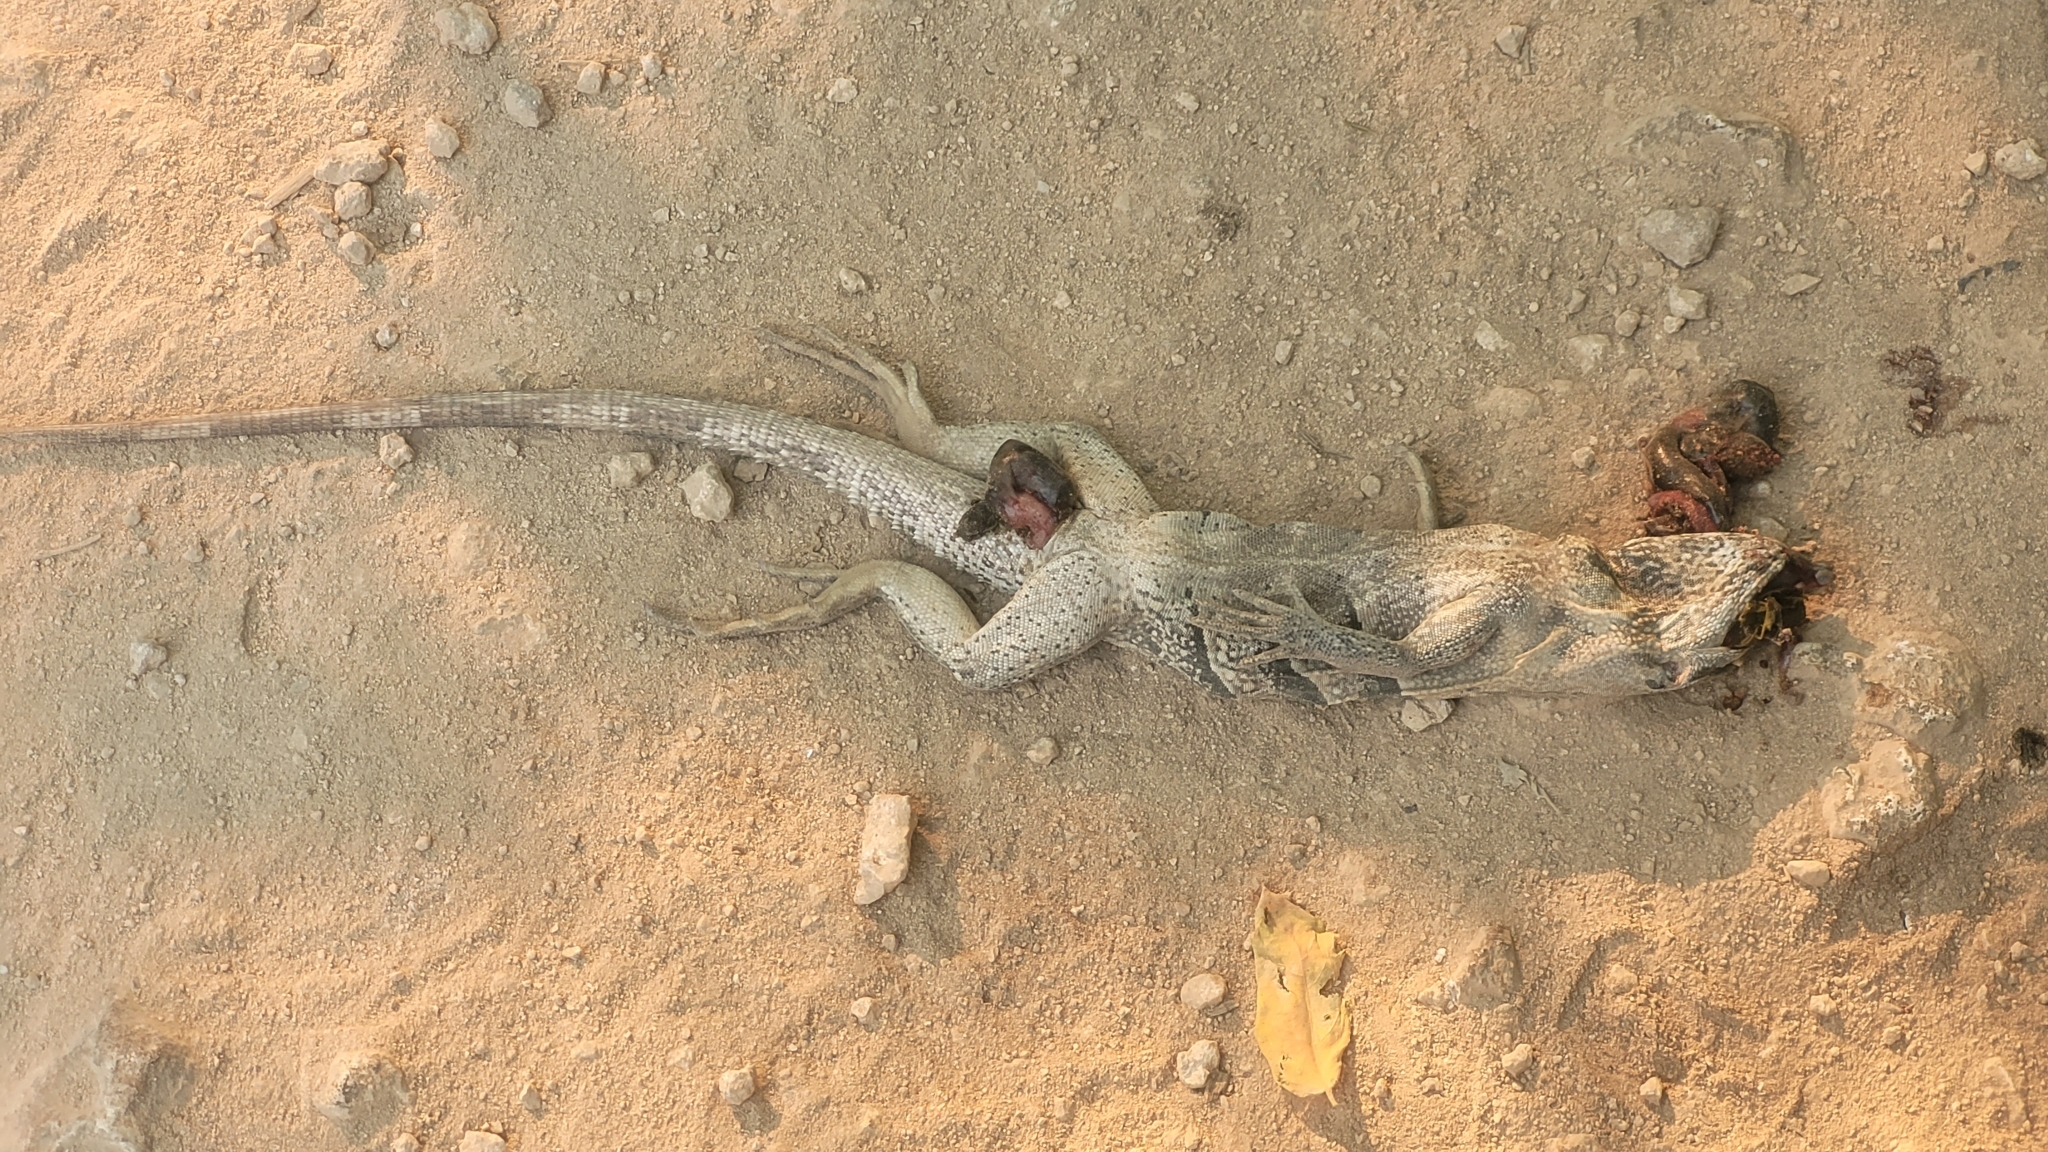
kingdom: Animalia
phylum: Chordata
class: Squamata
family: Iguanidae
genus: Ctenosaura
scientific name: Ctenosaura similis
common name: Black spiny-tailed iguana
